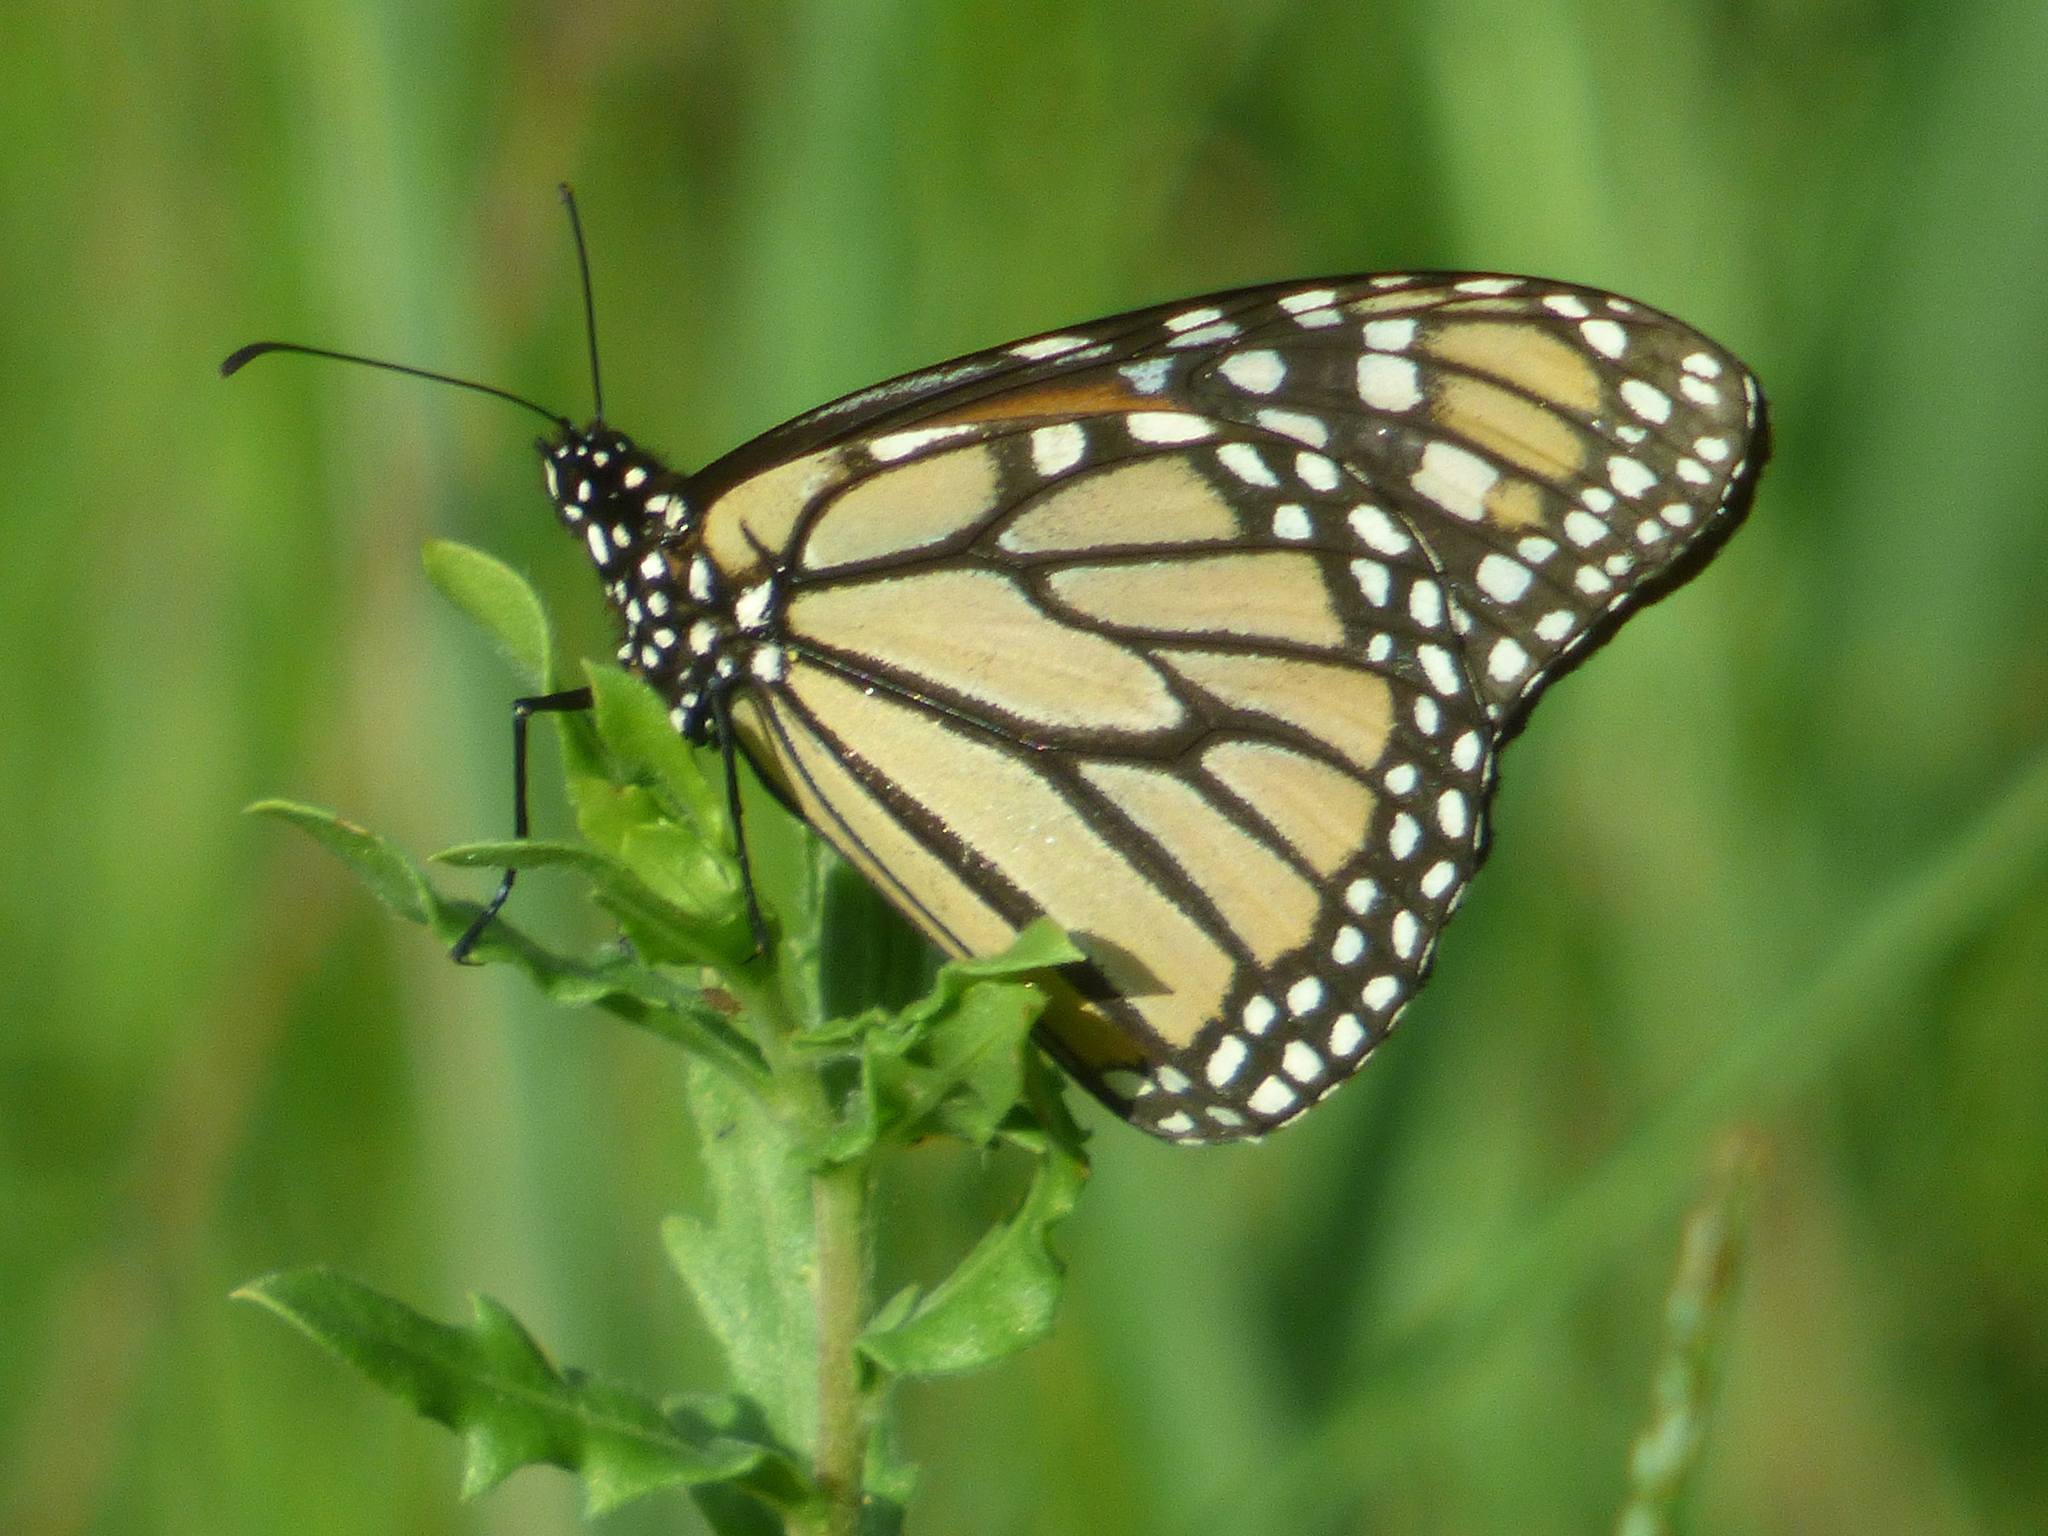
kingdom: Animalia
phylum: Arthropoda
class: Insecta
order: Lepidoptera
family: Nymphalidae
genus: Danaus
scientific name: Danaus plexippus
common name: Monarch
